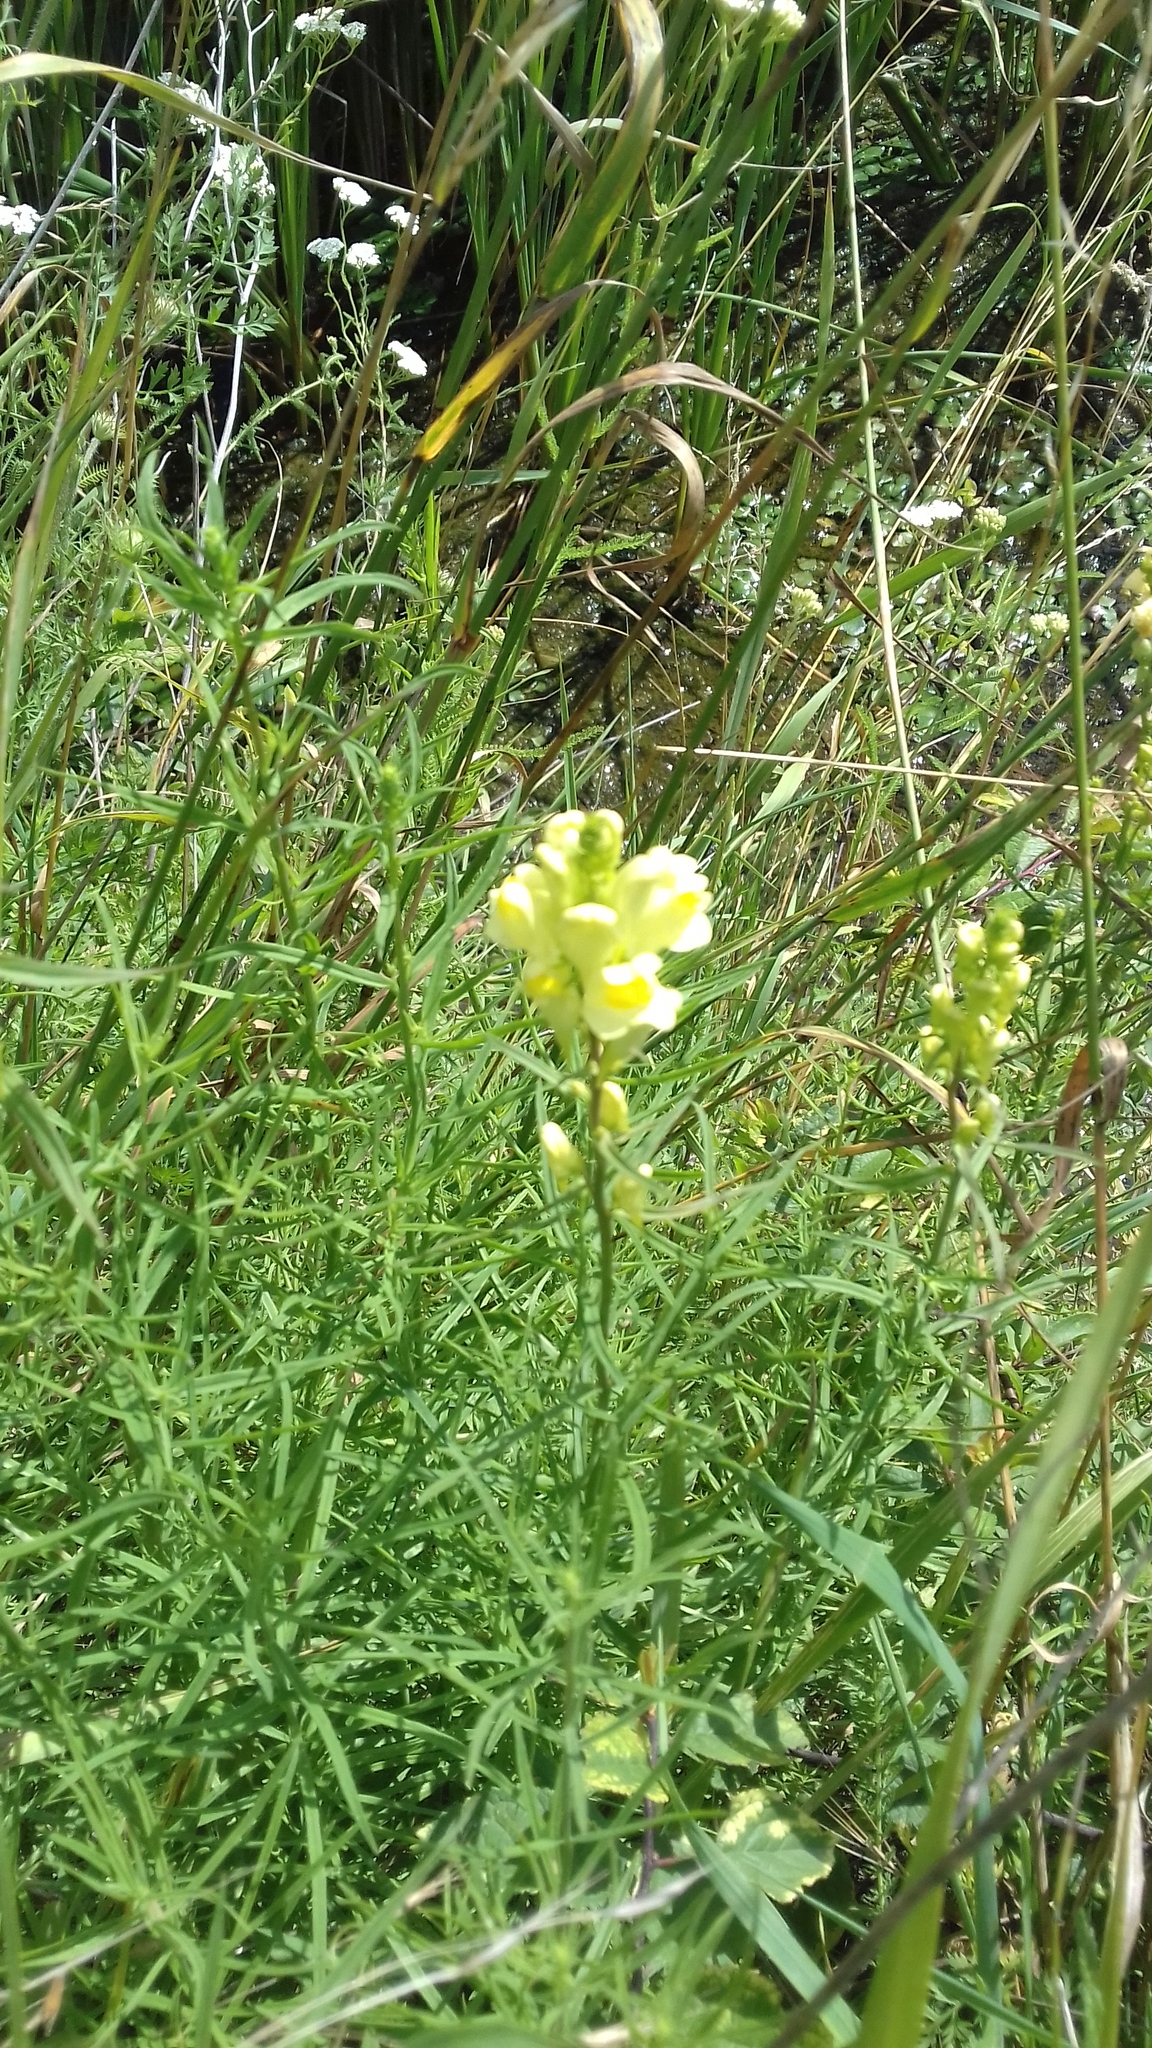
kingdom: Plantae
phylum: Tracheophyta
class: Magnoliopsida
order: Lamiales
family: Plantaginaceae
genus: Linaria
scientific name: Linaria vulgaris
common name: Butter and eggs
